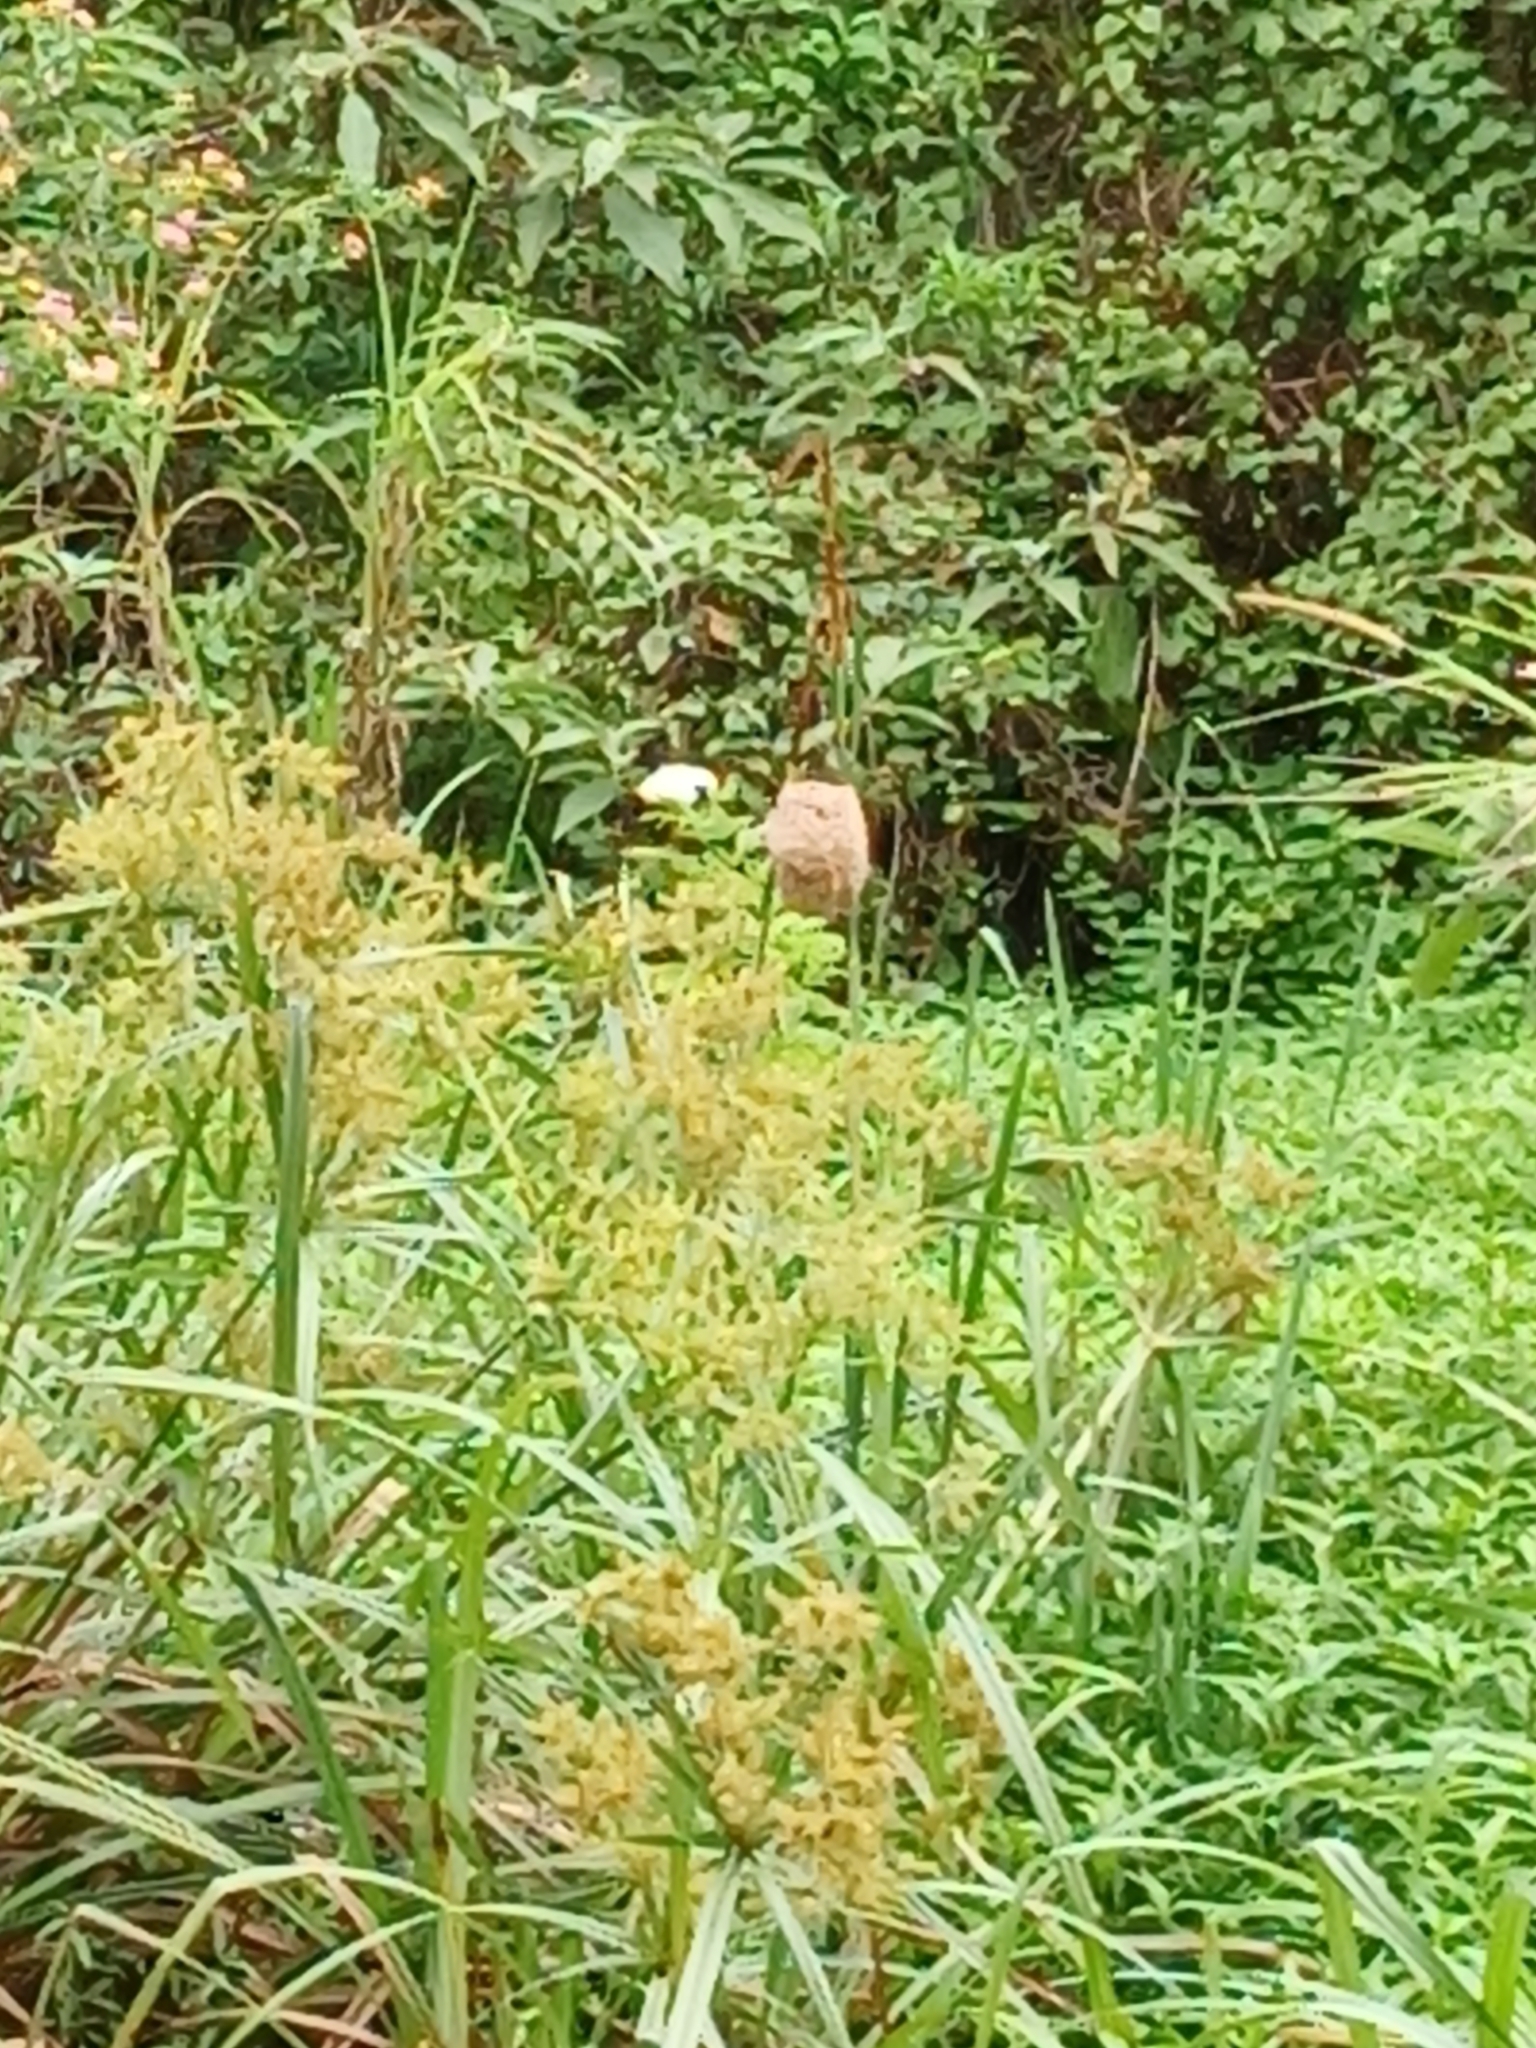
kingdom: Animalia
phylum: Chordata
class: Aves
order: Passeriformes
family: Ploceidae
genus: Amblyospiza
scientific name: Amblyospiza albifrons
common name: Thick-billed weaver
